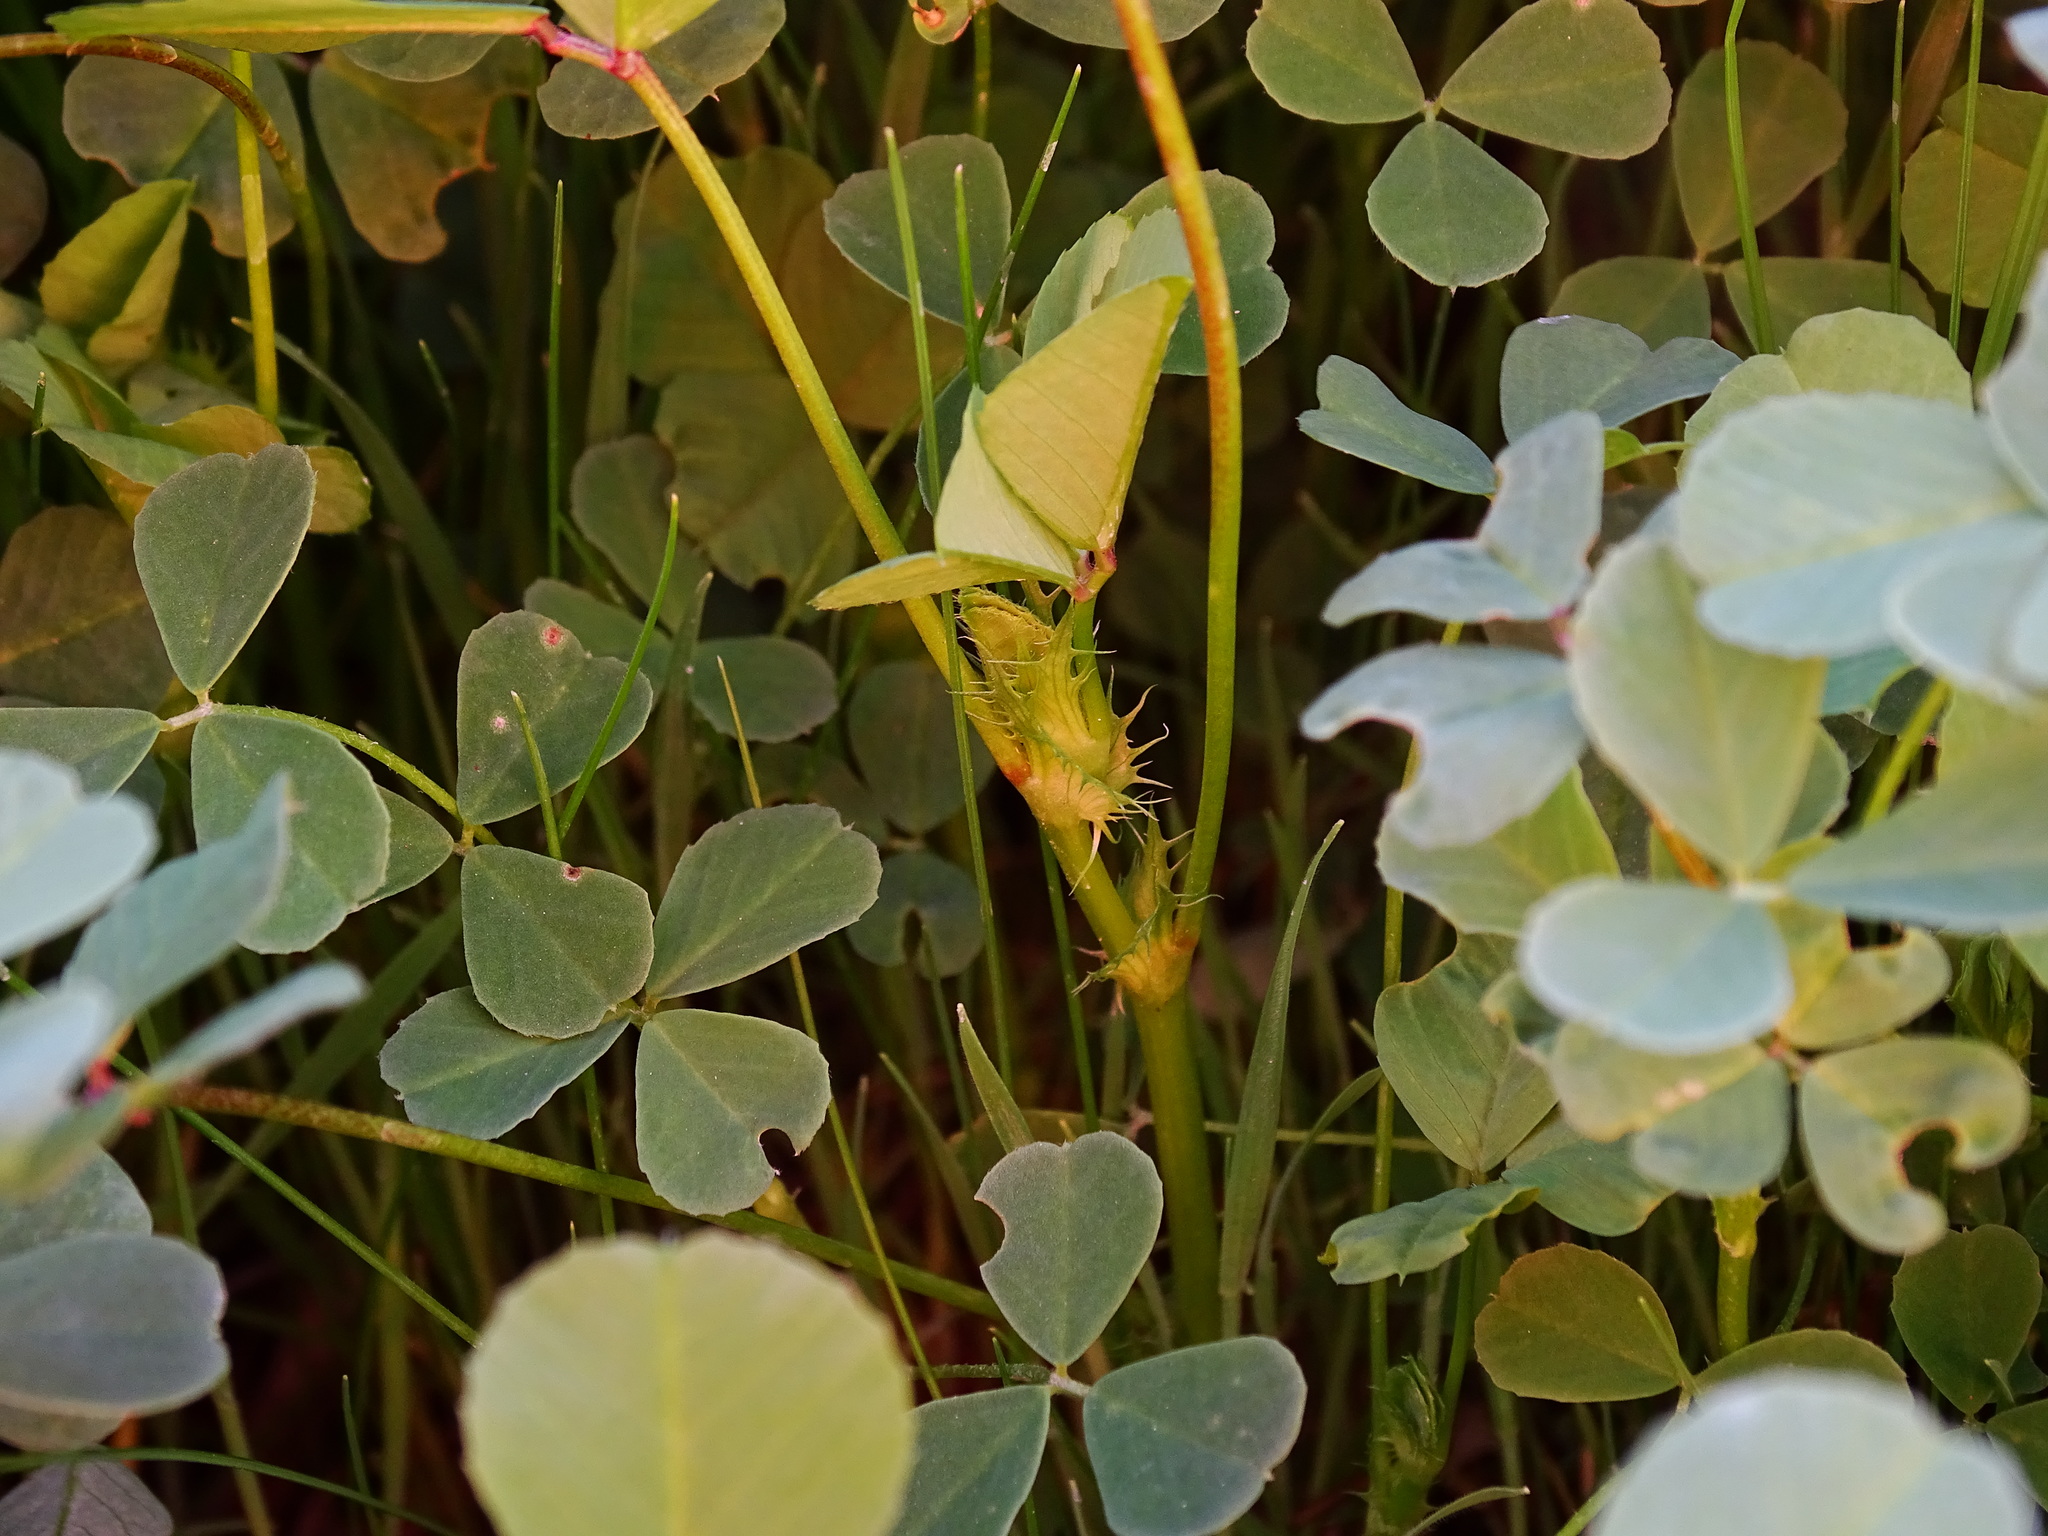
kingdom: Plantae
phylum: Tracheophyta
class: Magnoliopsida
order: Fabales
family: Fabaceae
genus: Medicago
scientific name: Medicago polymorpha
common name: Burclover
